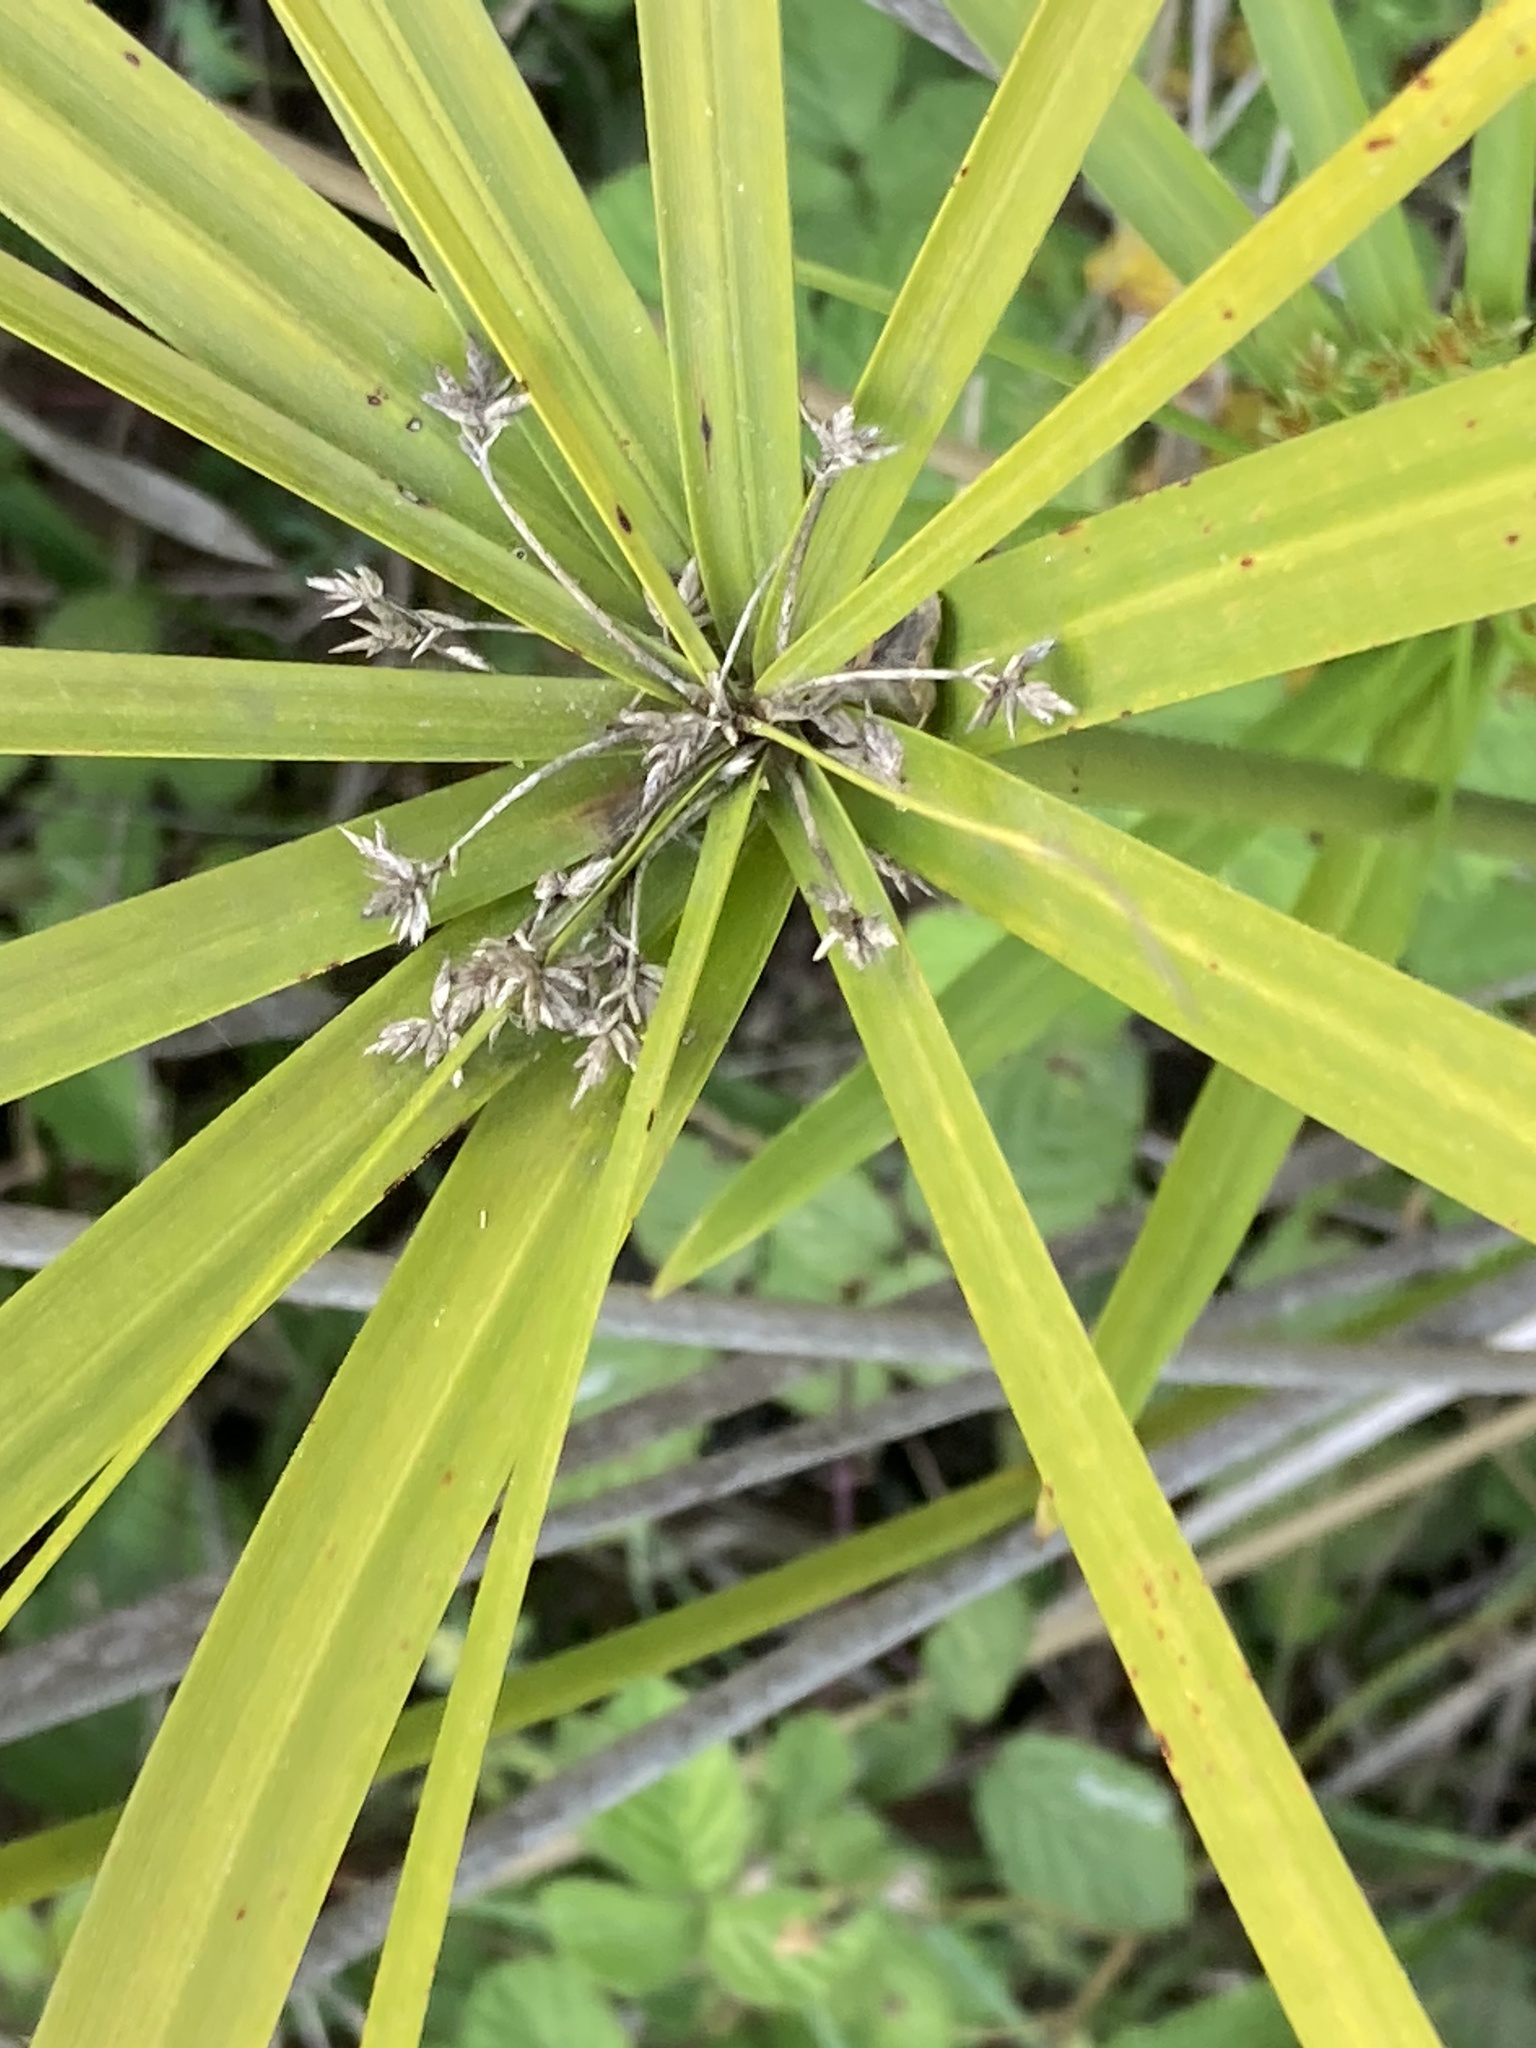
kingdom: Plantae
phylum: Tracheophyta
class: Liliopsida
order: Poales
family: Cyperaceae
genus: Cyperus
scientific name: Cyperus alternifolius
